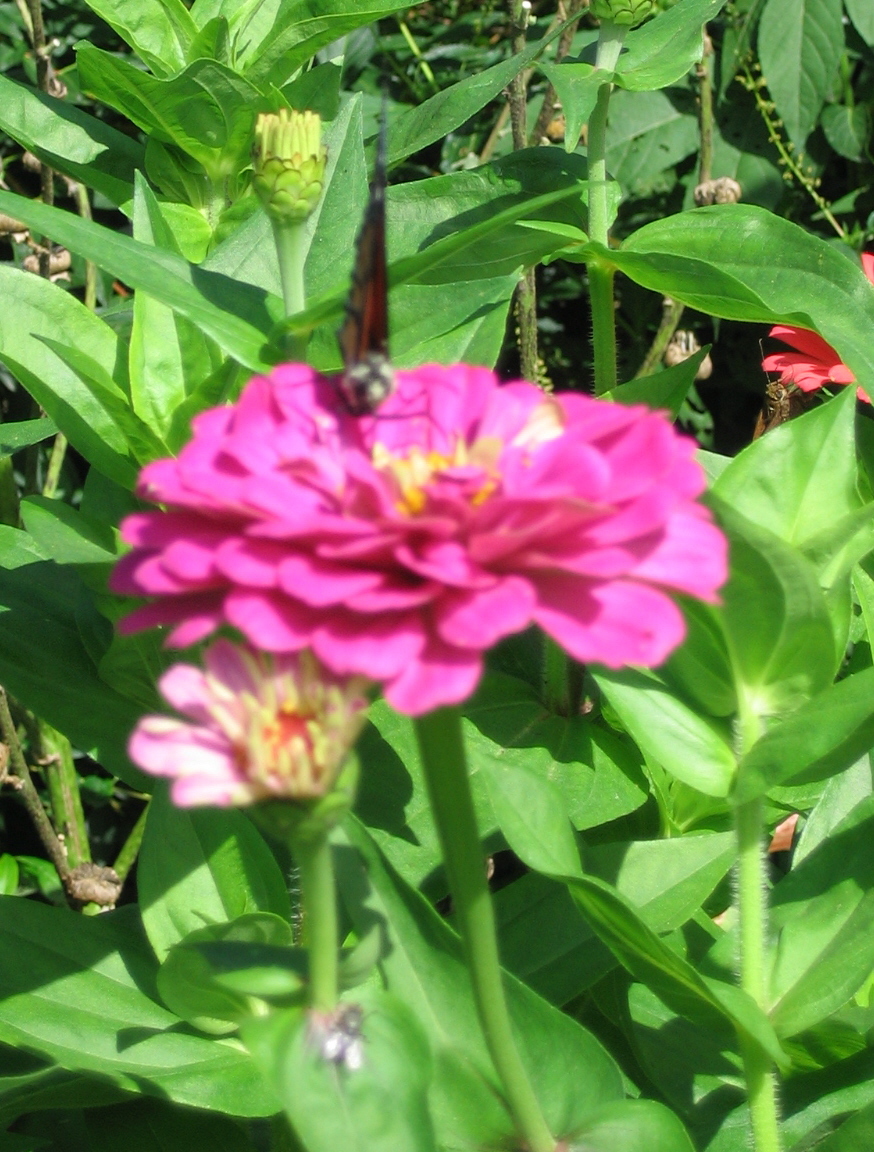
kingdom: Animalia
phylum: Arthropoda
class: Insecta
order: Lepidoptera
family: Nymphalidae
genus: Danaus
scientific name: Danaus plexippus
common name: Monarch
